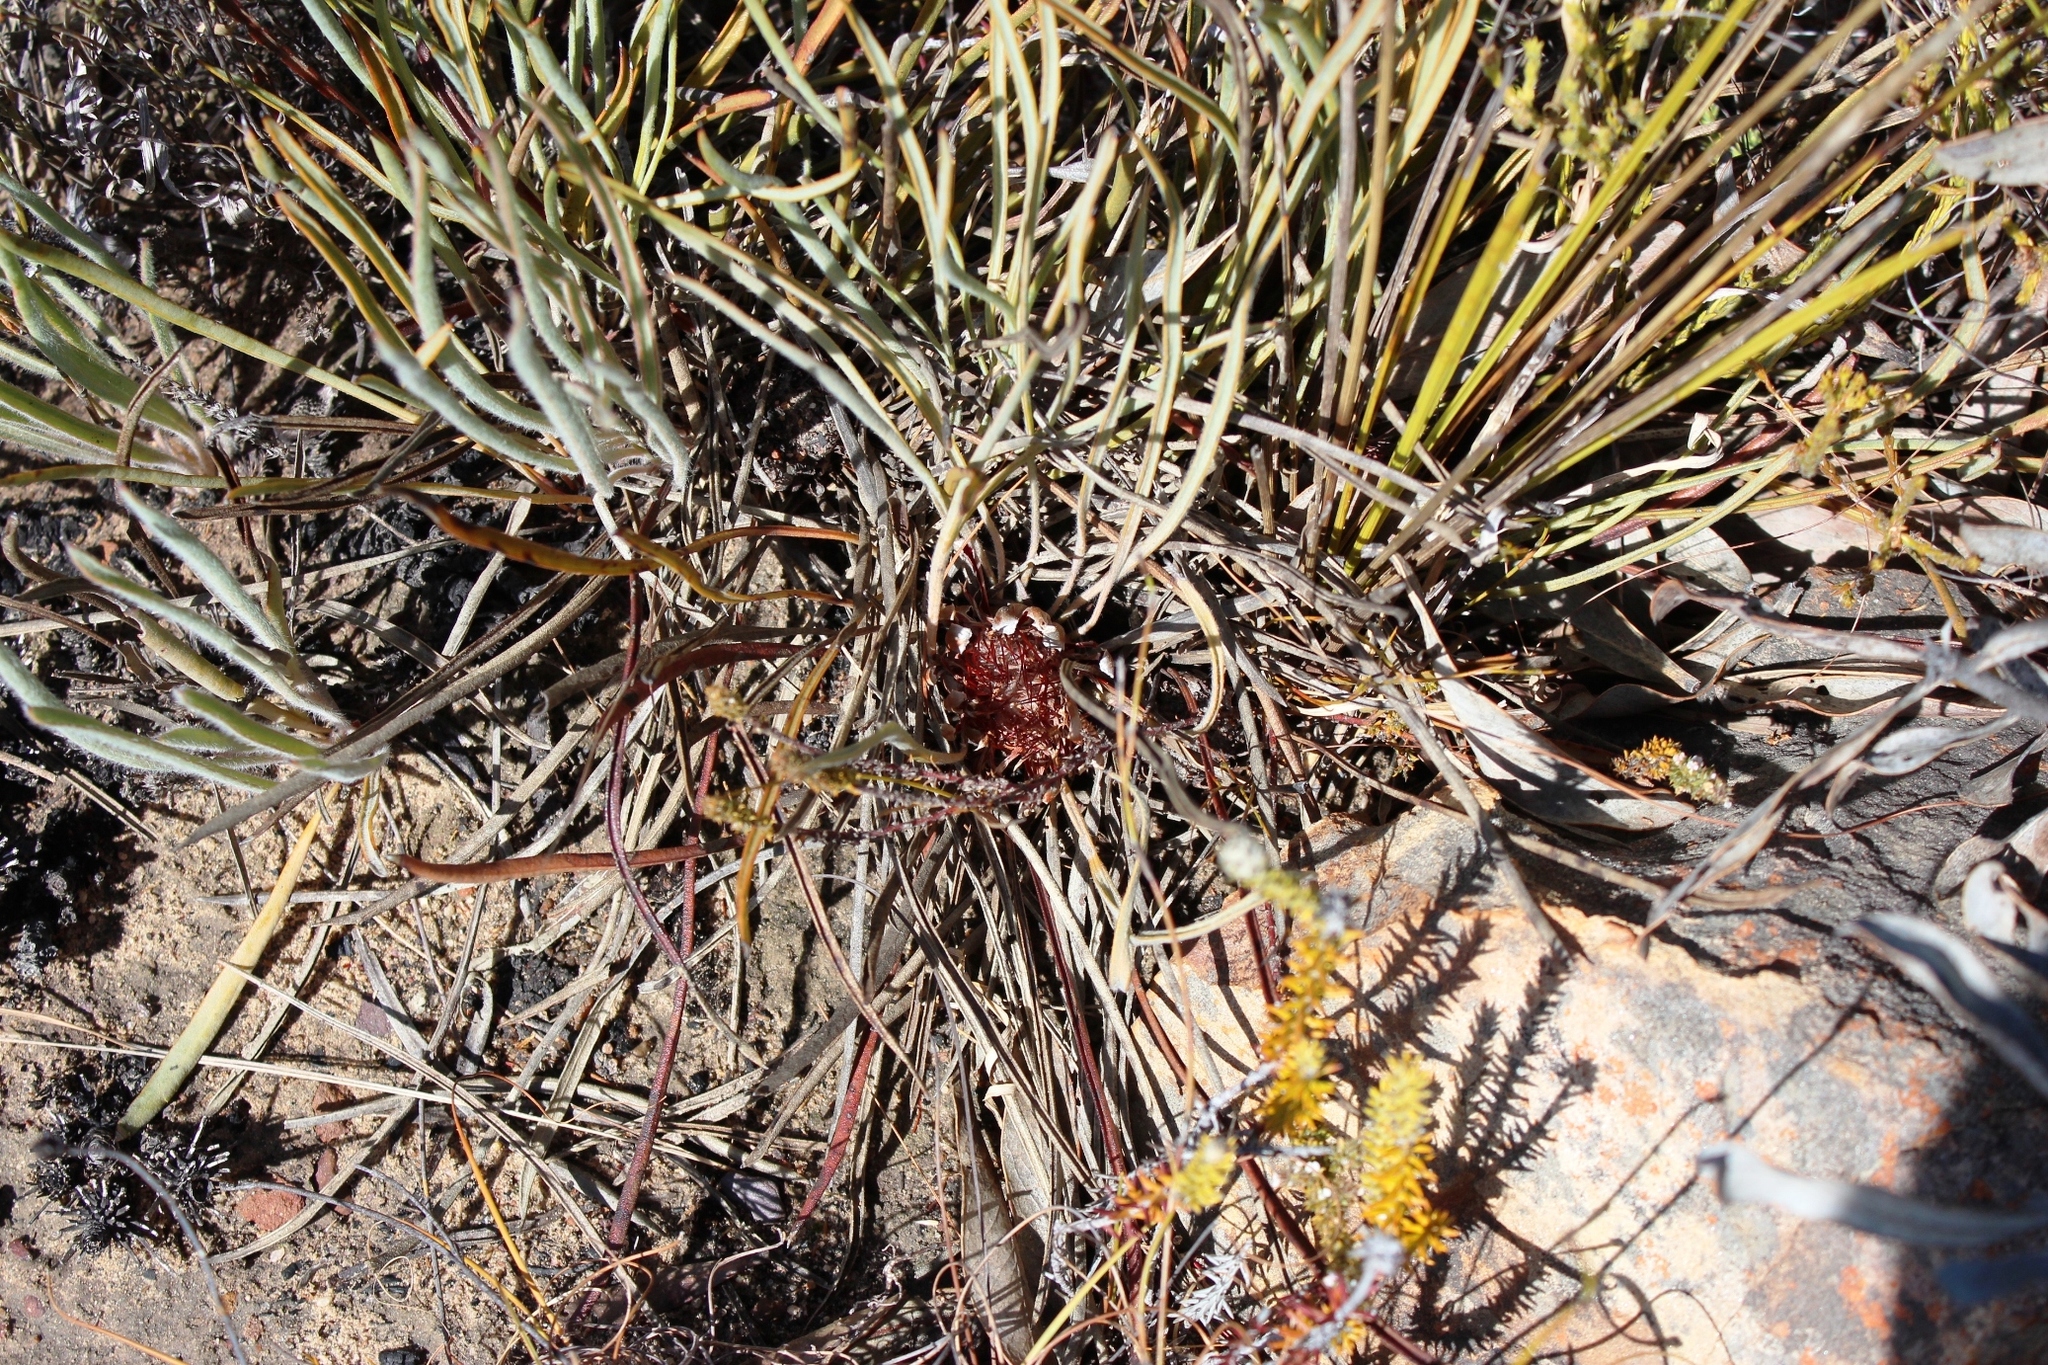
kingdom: Plantae
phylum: Tracheophyta
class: Magnoliopsida
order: Proteales
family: Proteaceae
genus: Protea
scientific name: Protea piscina
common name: Visgat sugarbush
